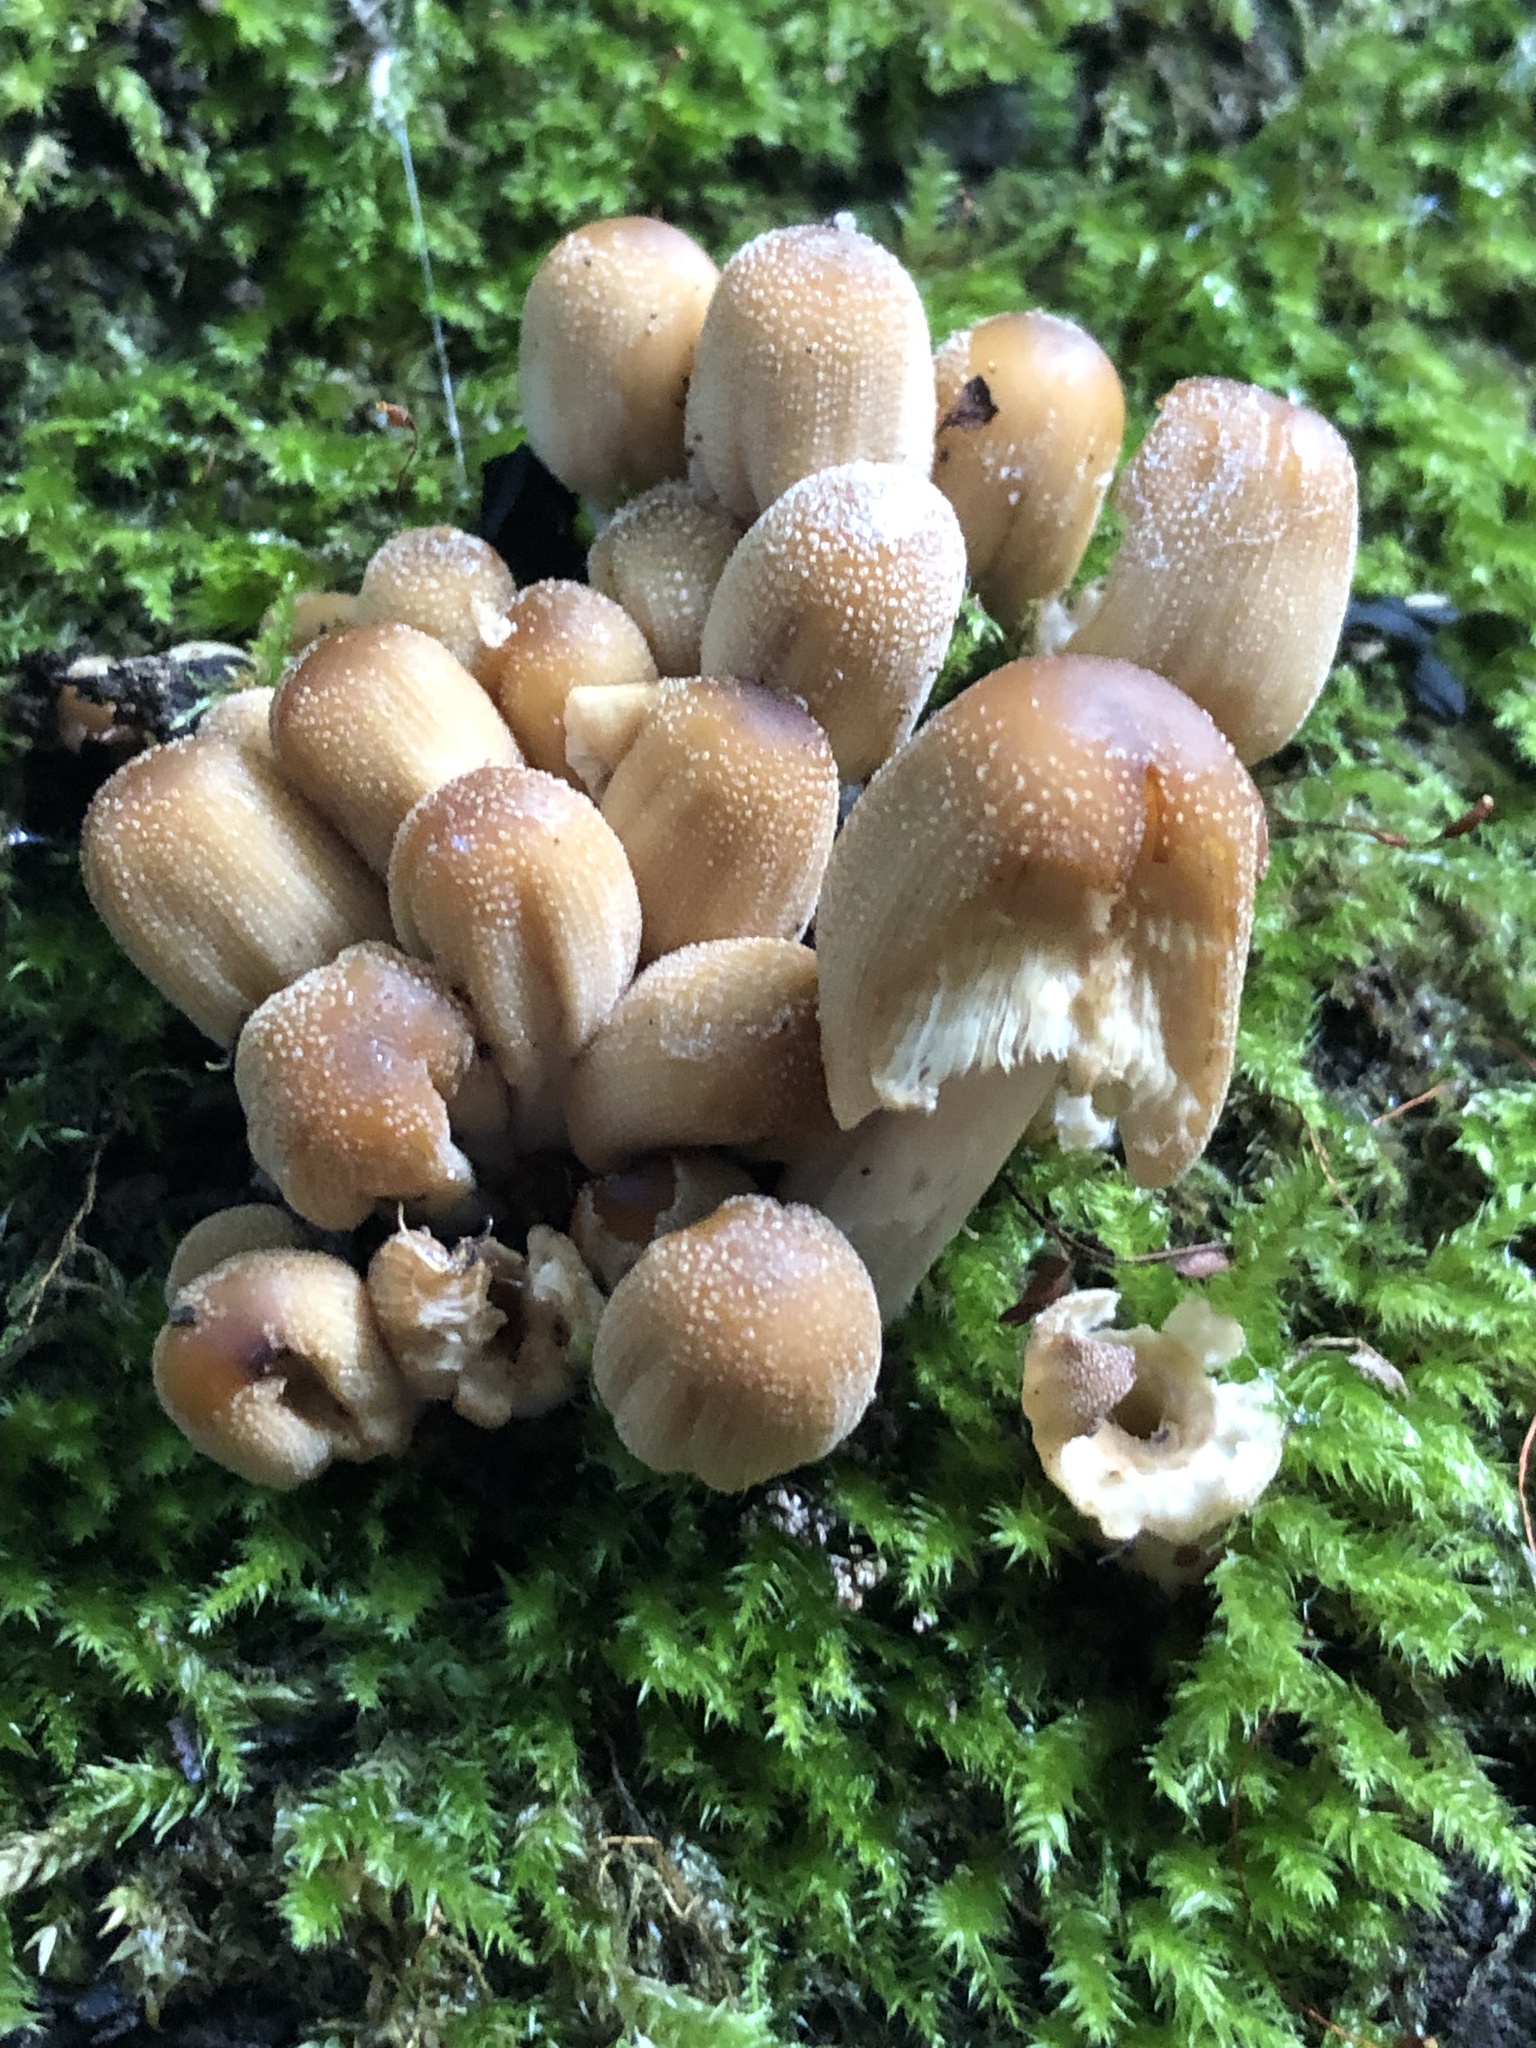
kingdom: Fungi
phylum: Basidiomycota
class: Agaricomycetes
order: Agaricales
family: Psathyrellaceae
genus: Coprinellus
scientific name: Coprinellus micaceus
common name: Glistening ink-cap
